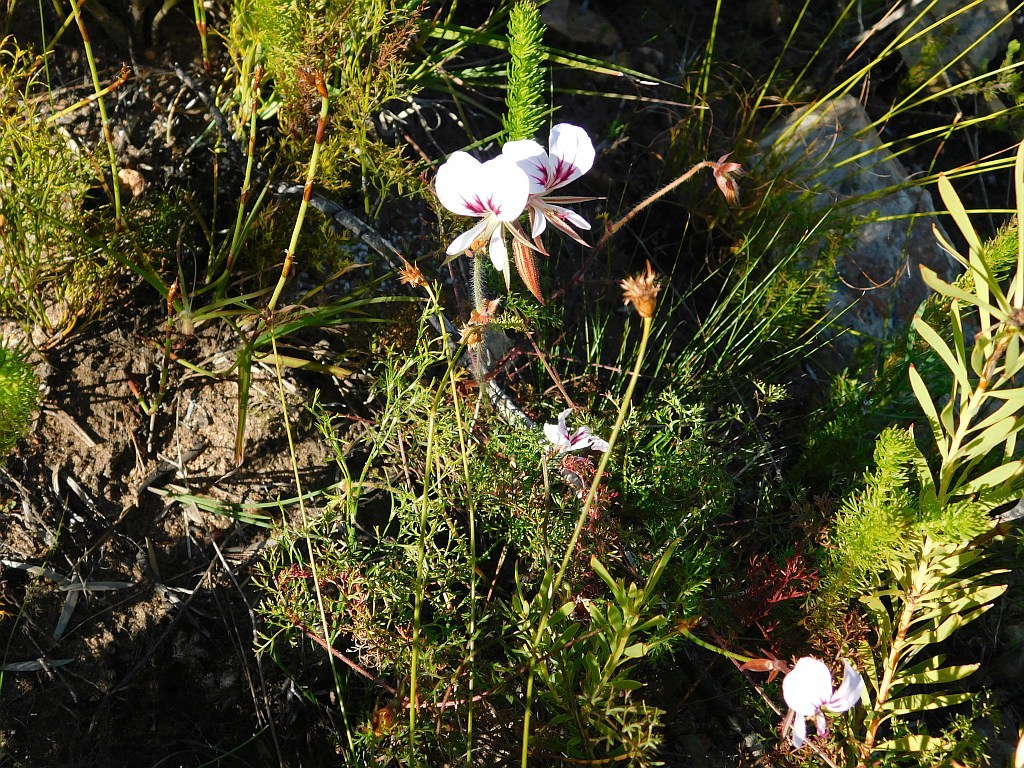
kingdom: Plantae
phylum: Tracheophyta
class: Magnoliopsida
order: Geraniales
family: Geraniaceae
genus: Pelargonium
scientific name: Pelargonium myrrhifolium
